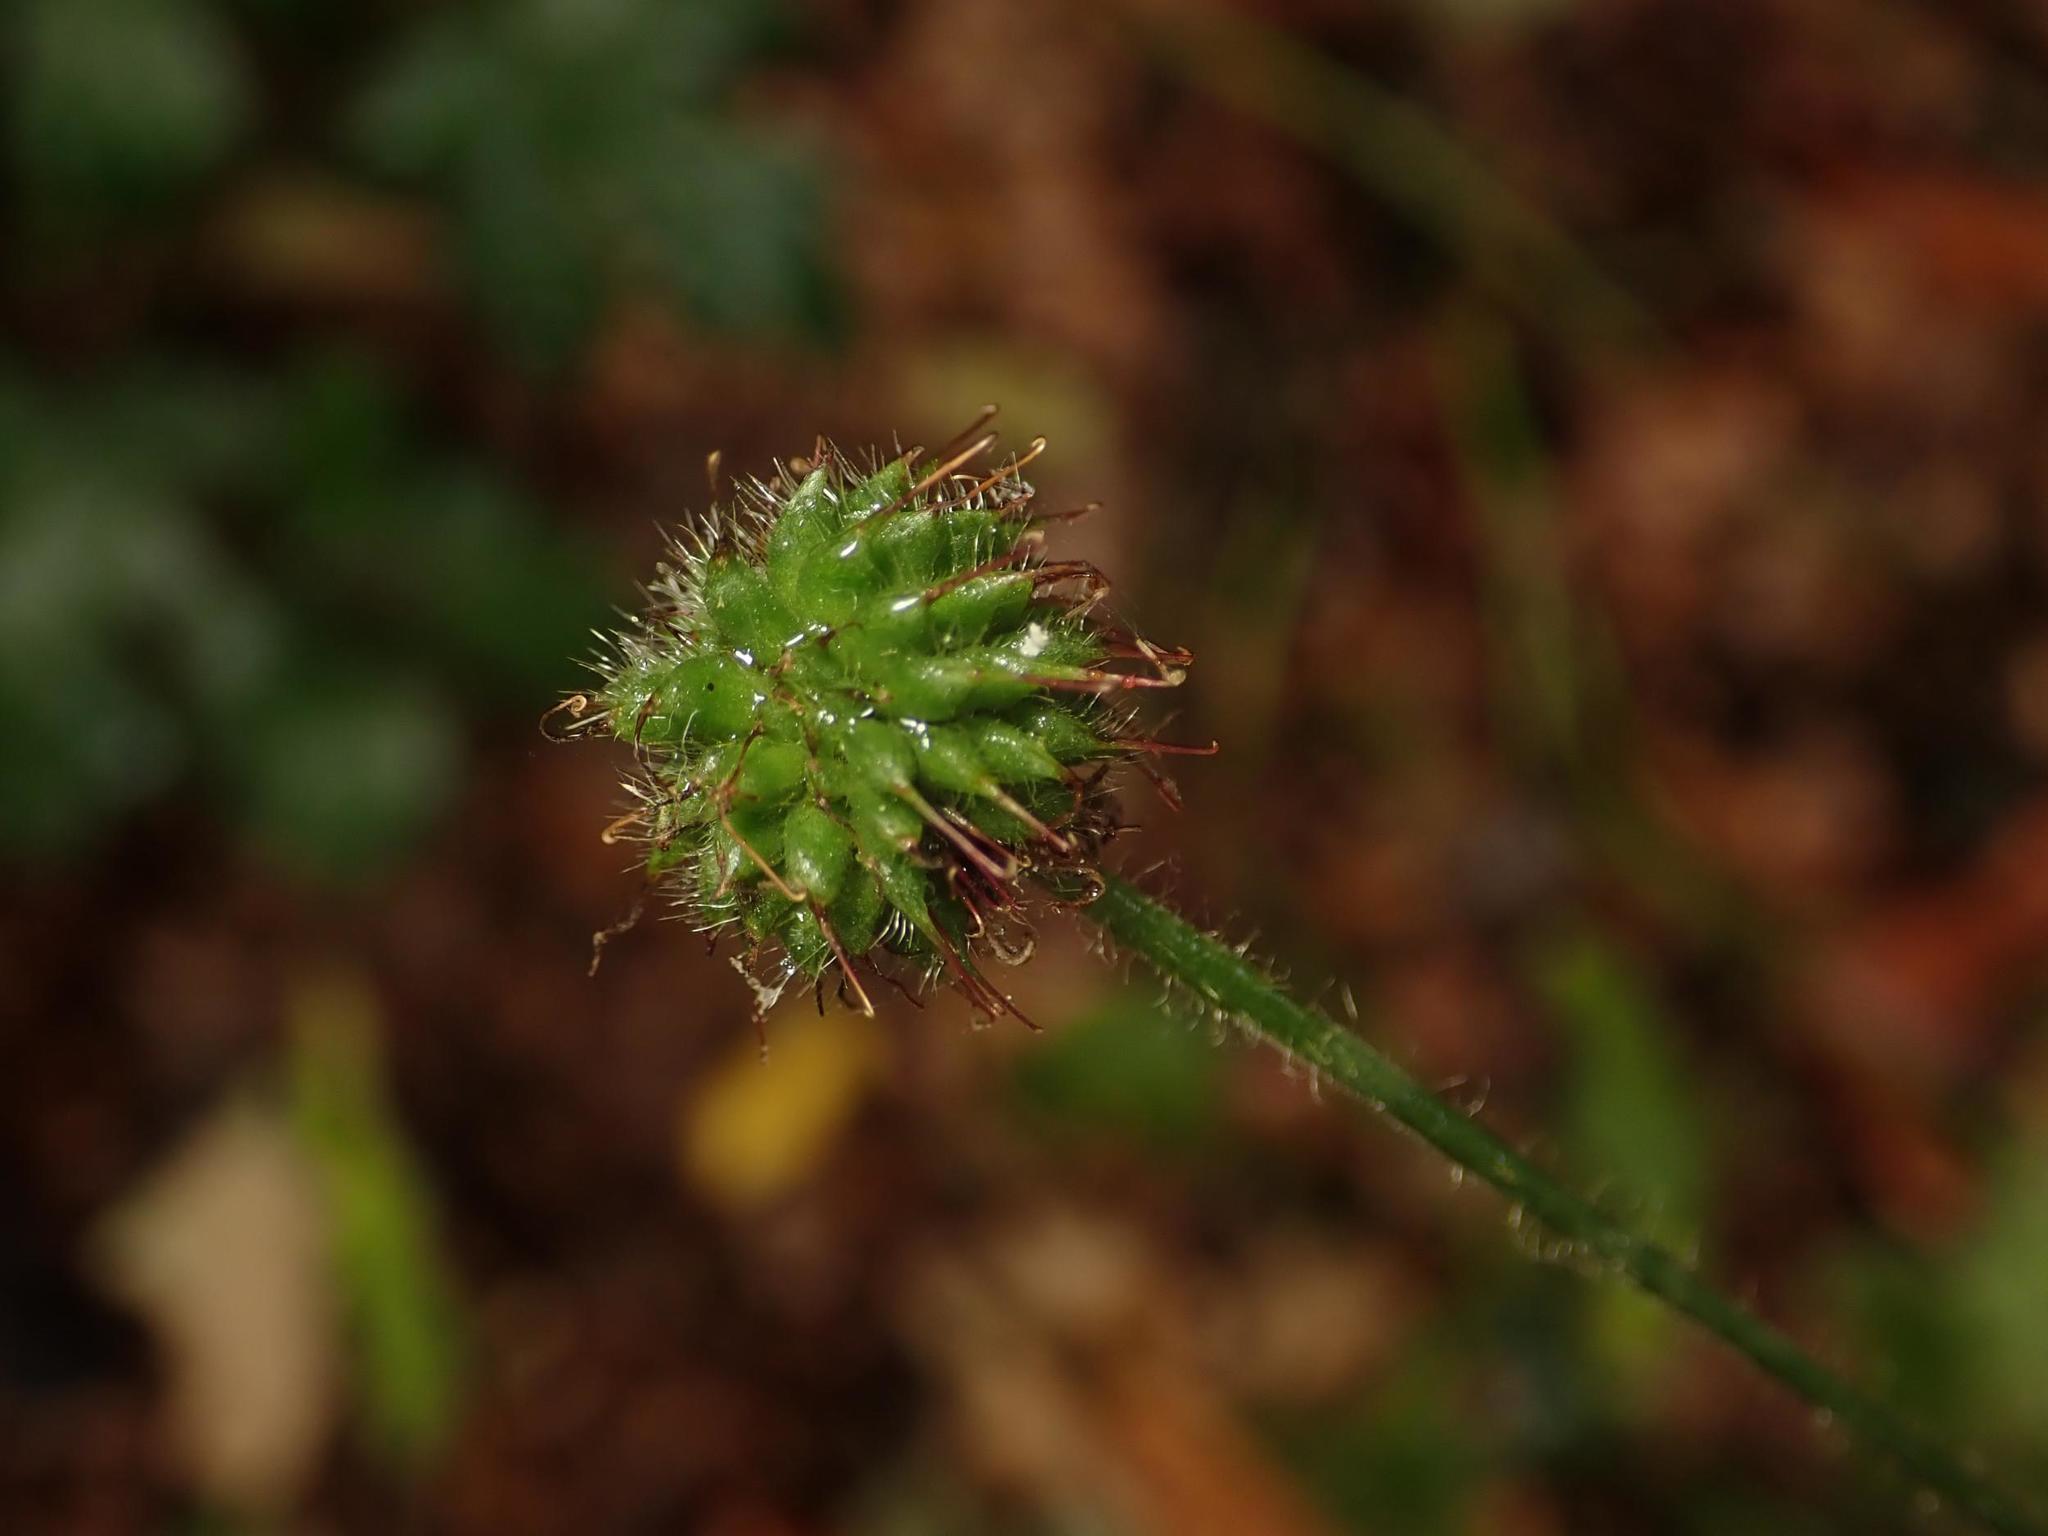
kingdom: Plantae
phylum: Tracheophyta
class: Magnoliopsida
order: Rosales
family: Rosaceae
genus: Geum
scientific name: Geum urbanum
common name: Wood avens
